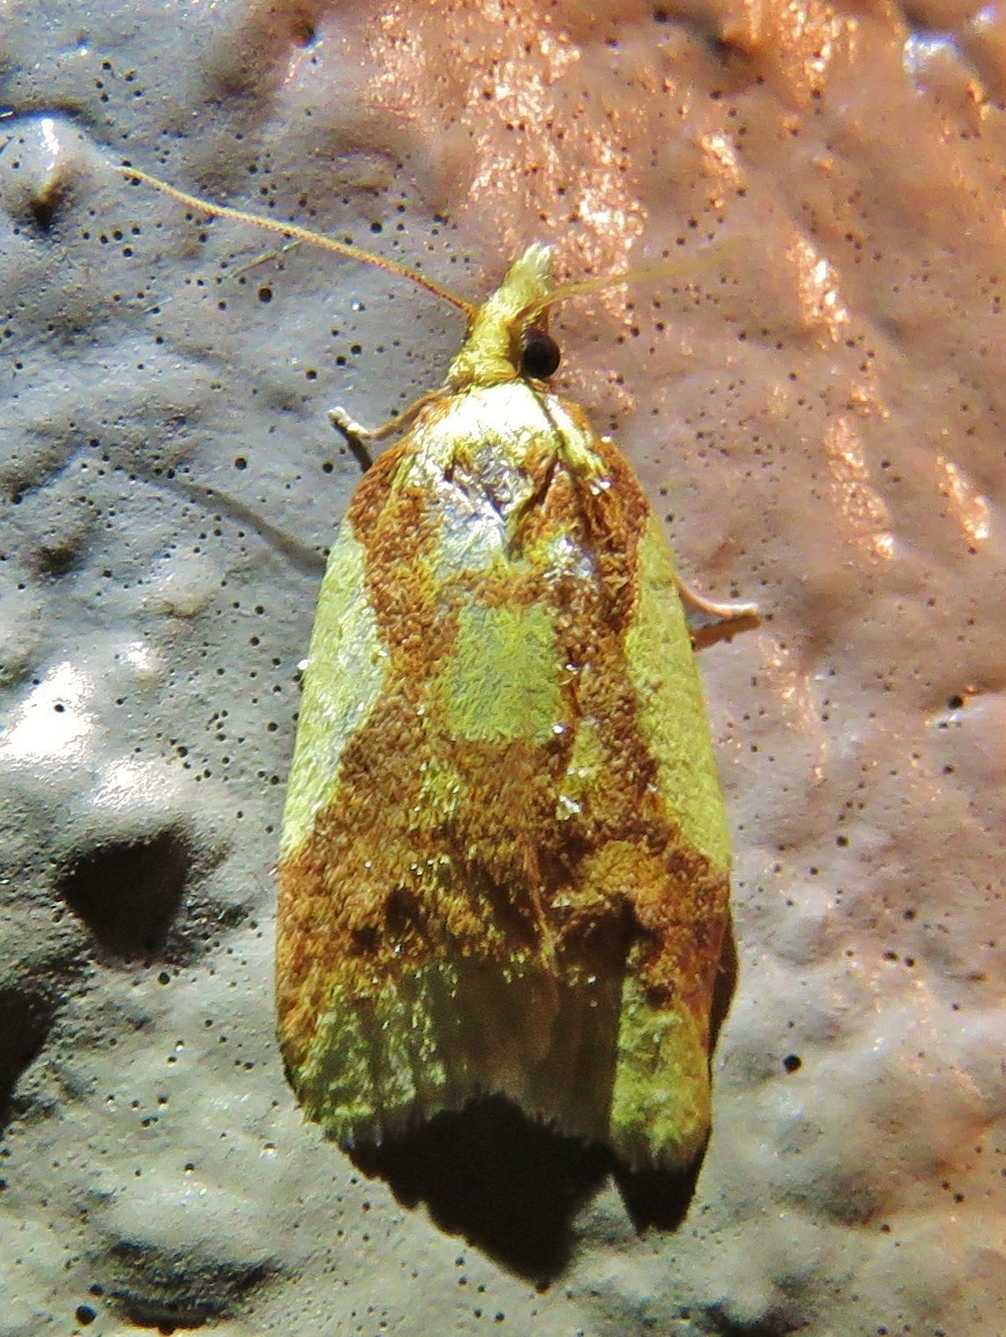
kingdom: Animalia
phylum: Arthropoda
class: Insecta
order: Lepidoptera
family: Tortricidae
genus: Sparganothis
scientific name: Sparganothis pulcherrimana
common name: Beautiful sparganothis
